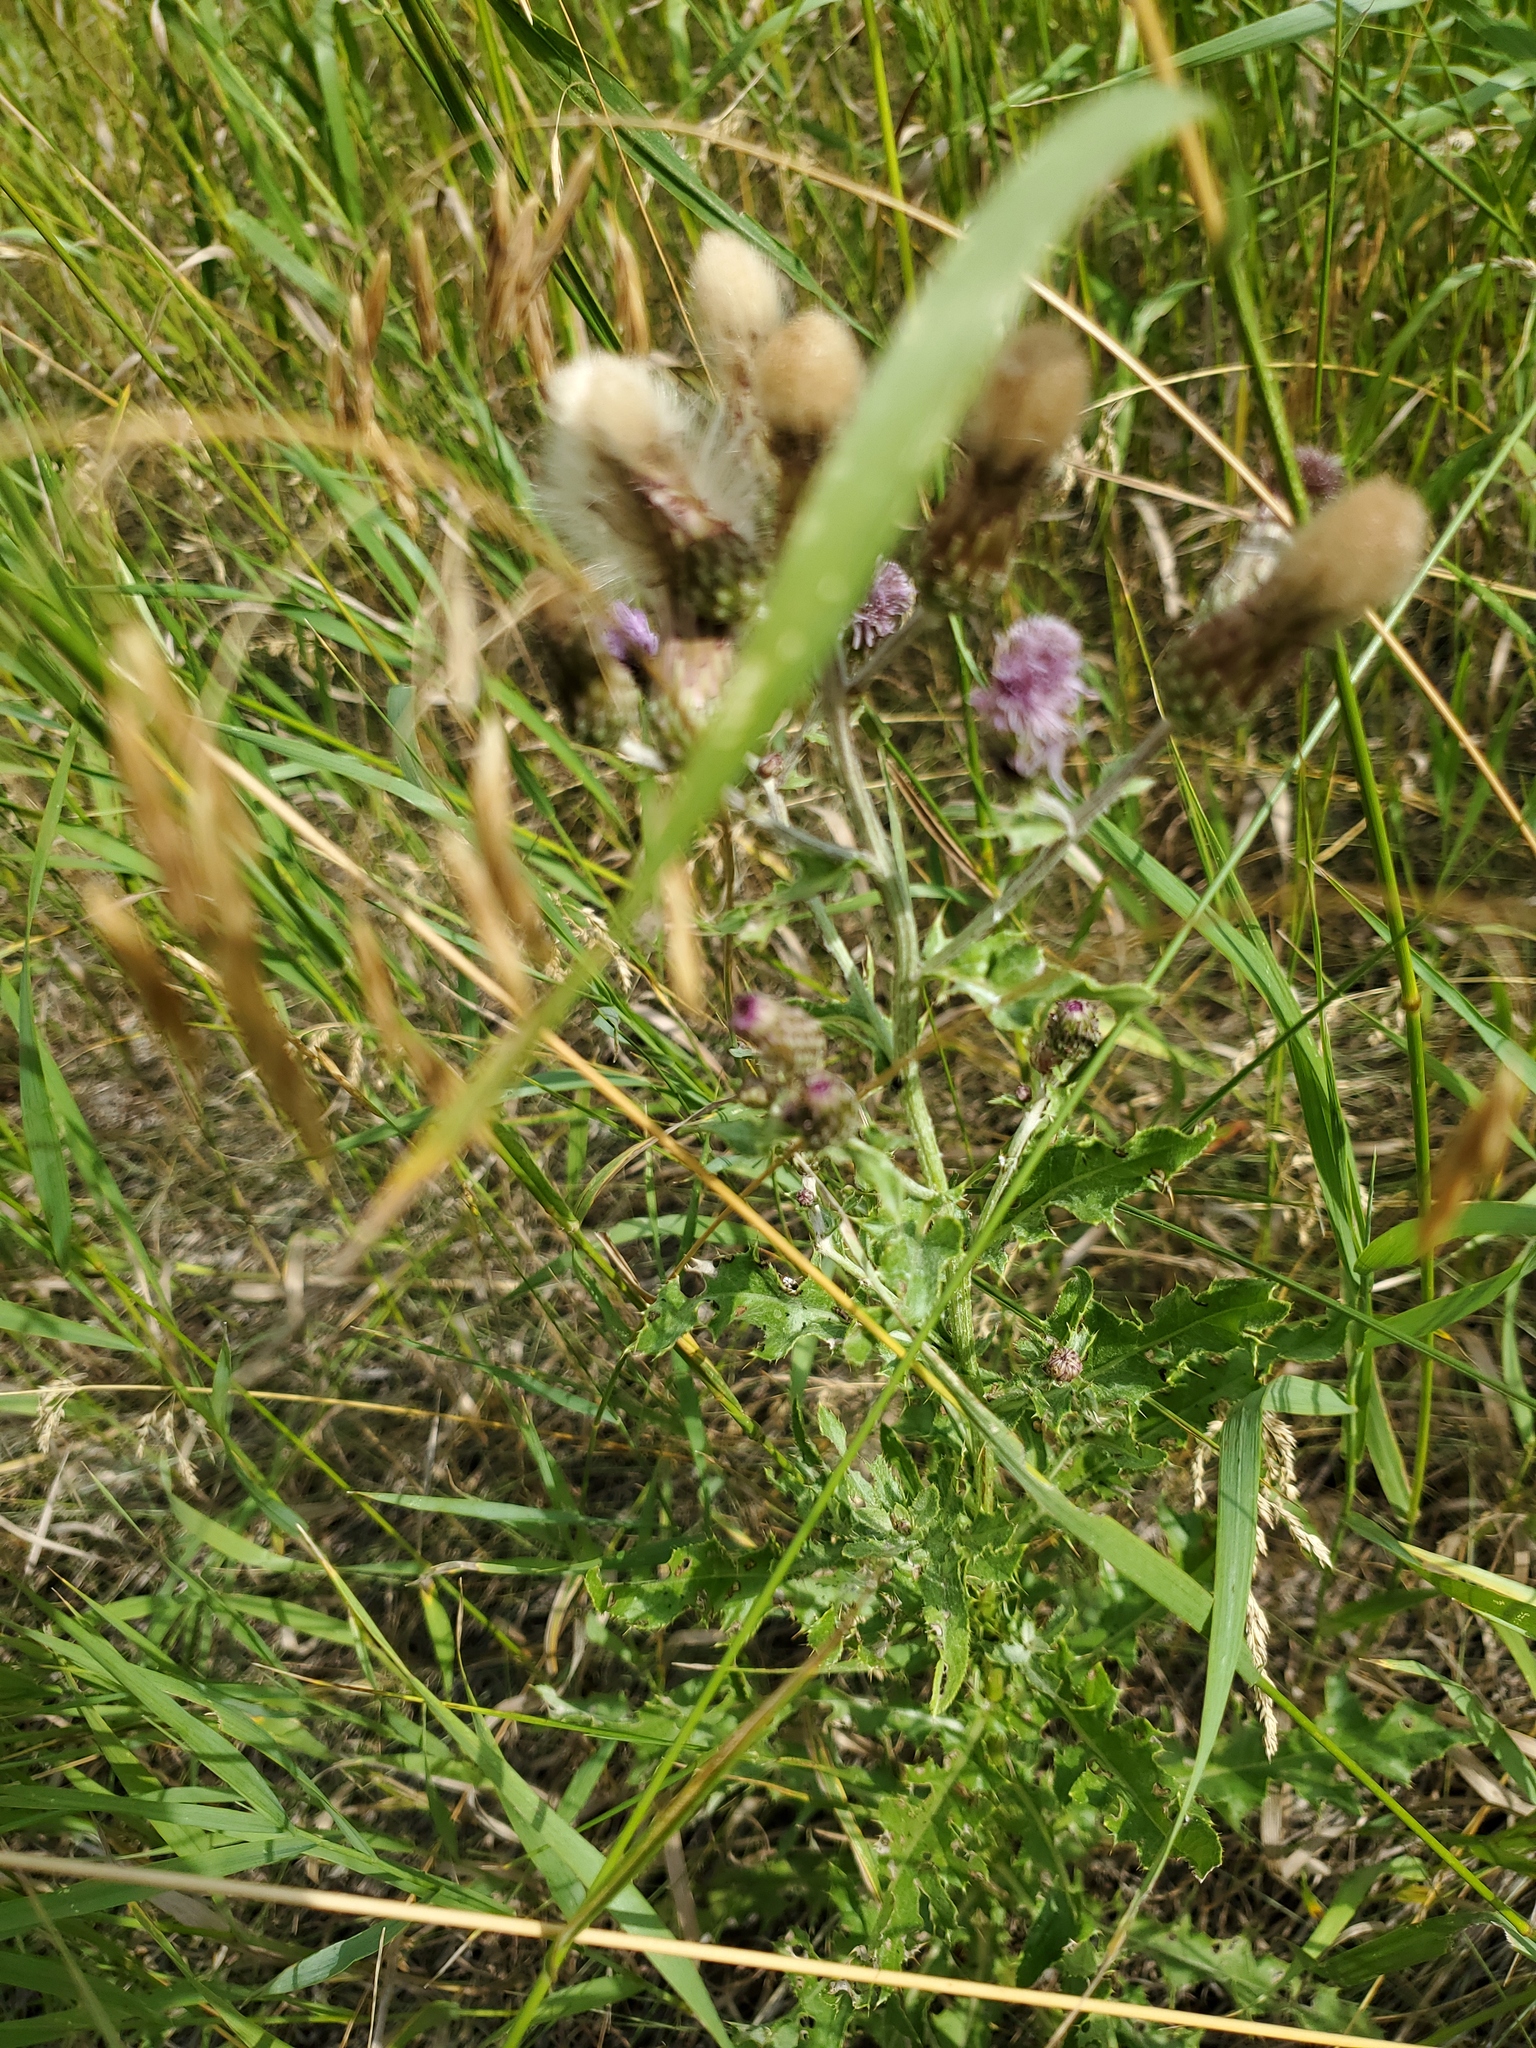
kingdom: Plantae
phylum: Tracheophyta
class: Magnoliopsida
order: Asterales
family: Asteraceae
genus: Cirsium
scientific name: Cirsium arvense
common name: Creeping thistle
